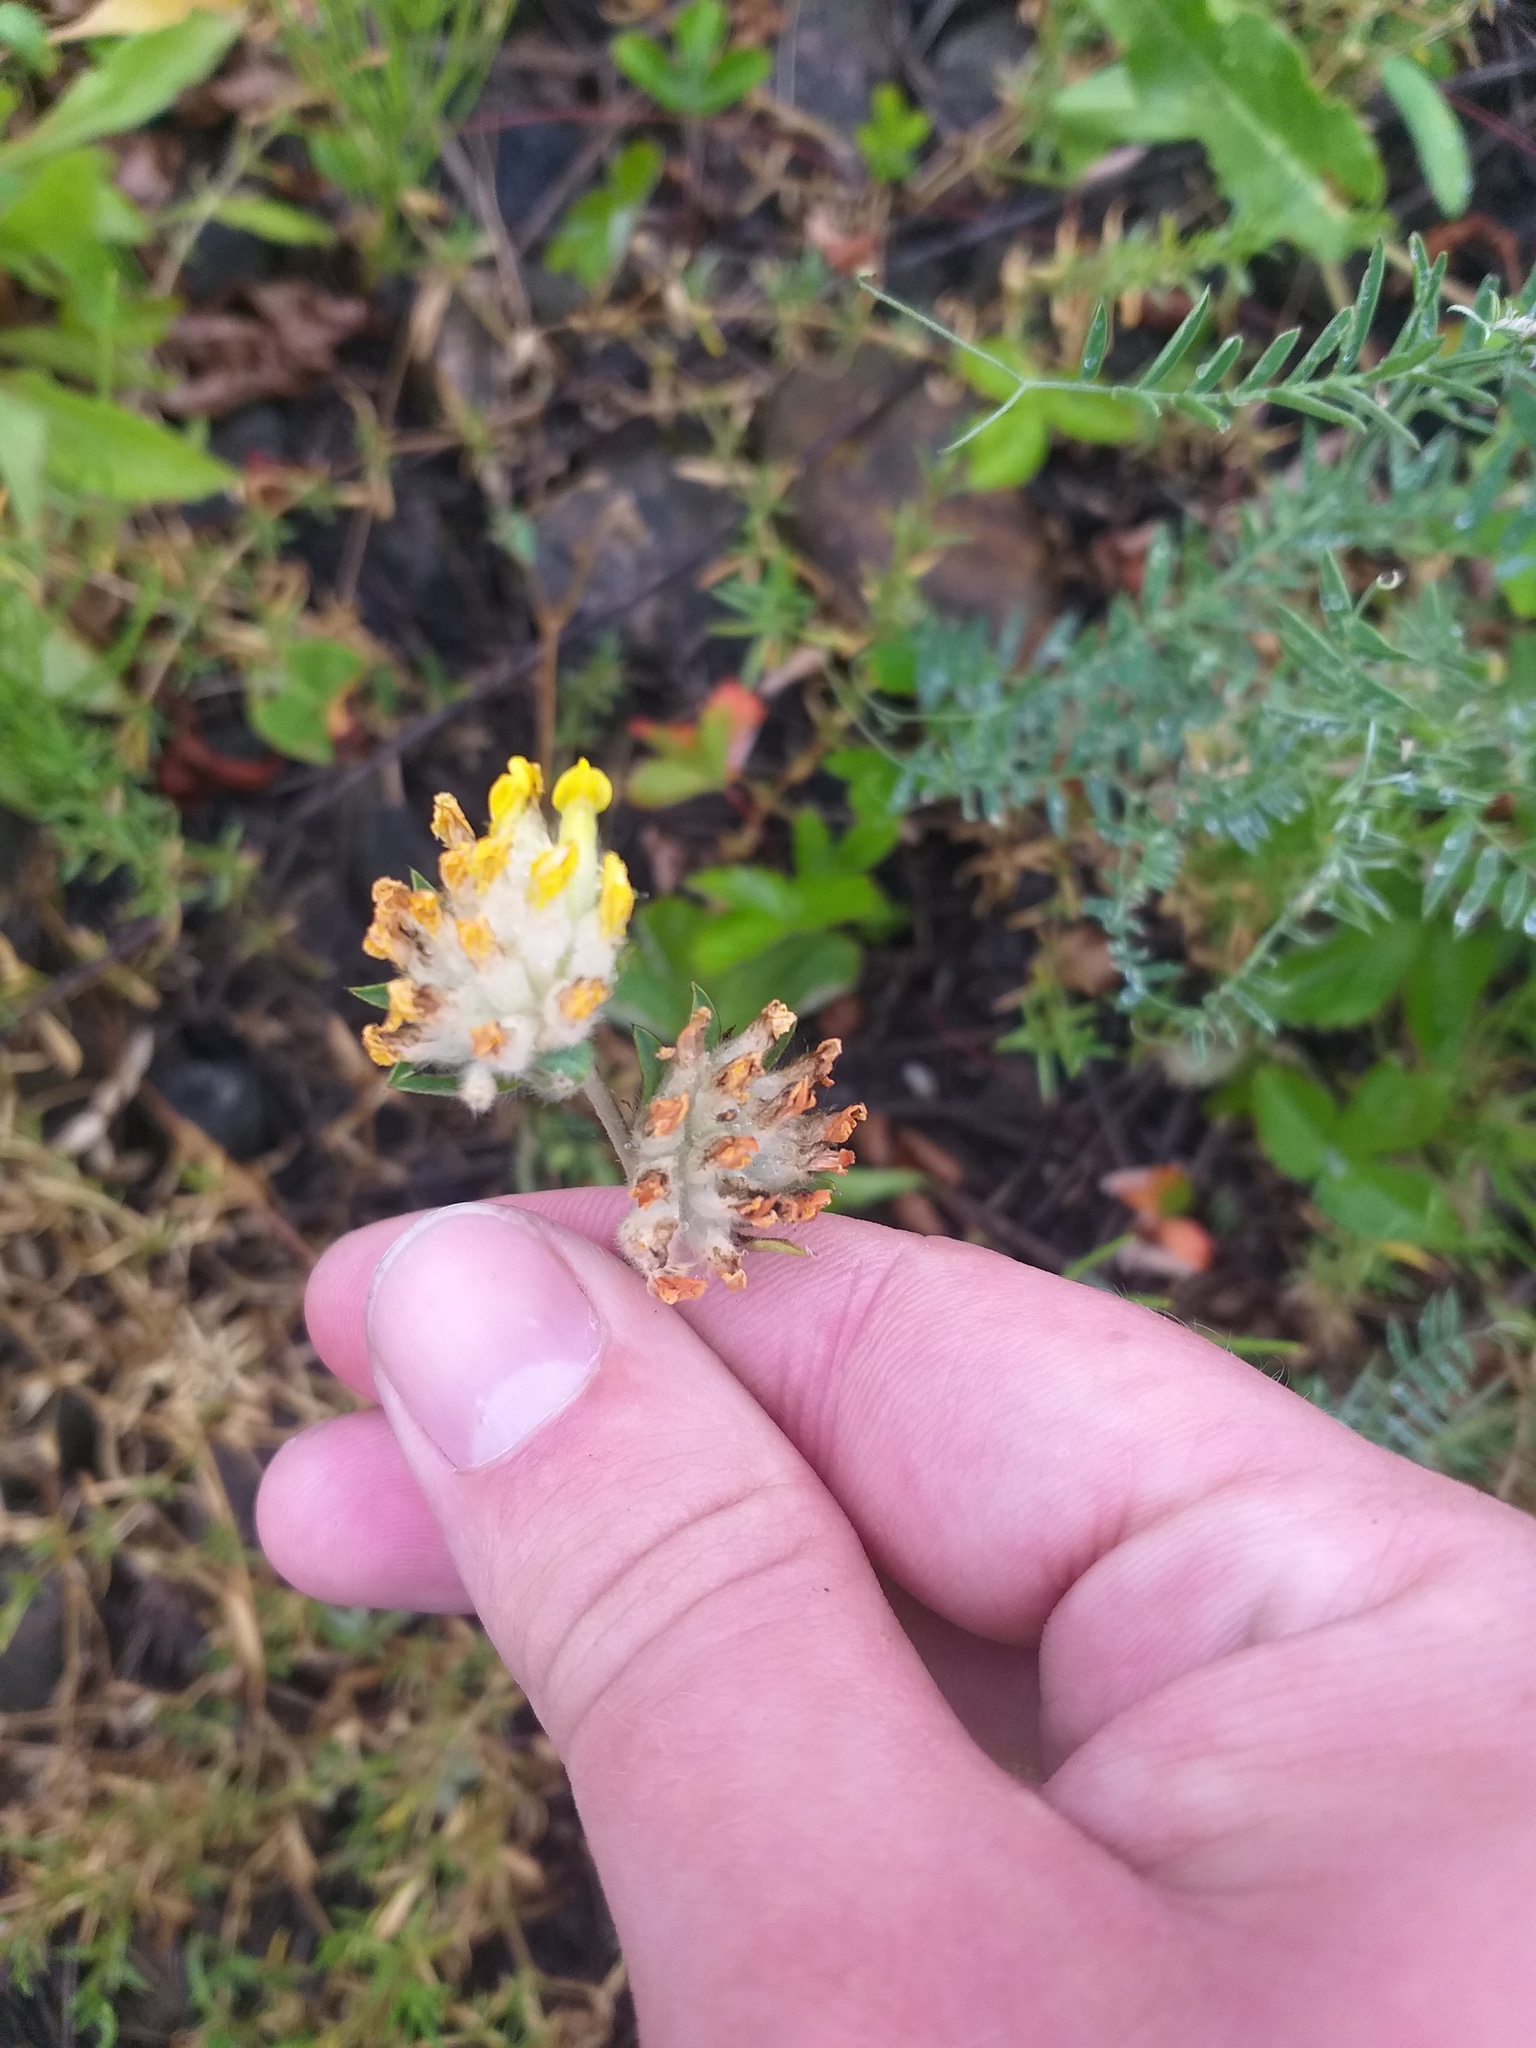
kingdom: Plantae
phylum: Tracheophyta
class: Magnoliopsida
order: Fabales
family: Fabaceae
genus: Anthyllis
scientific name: Anthyllis vulneraria
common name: Kidney vetch
